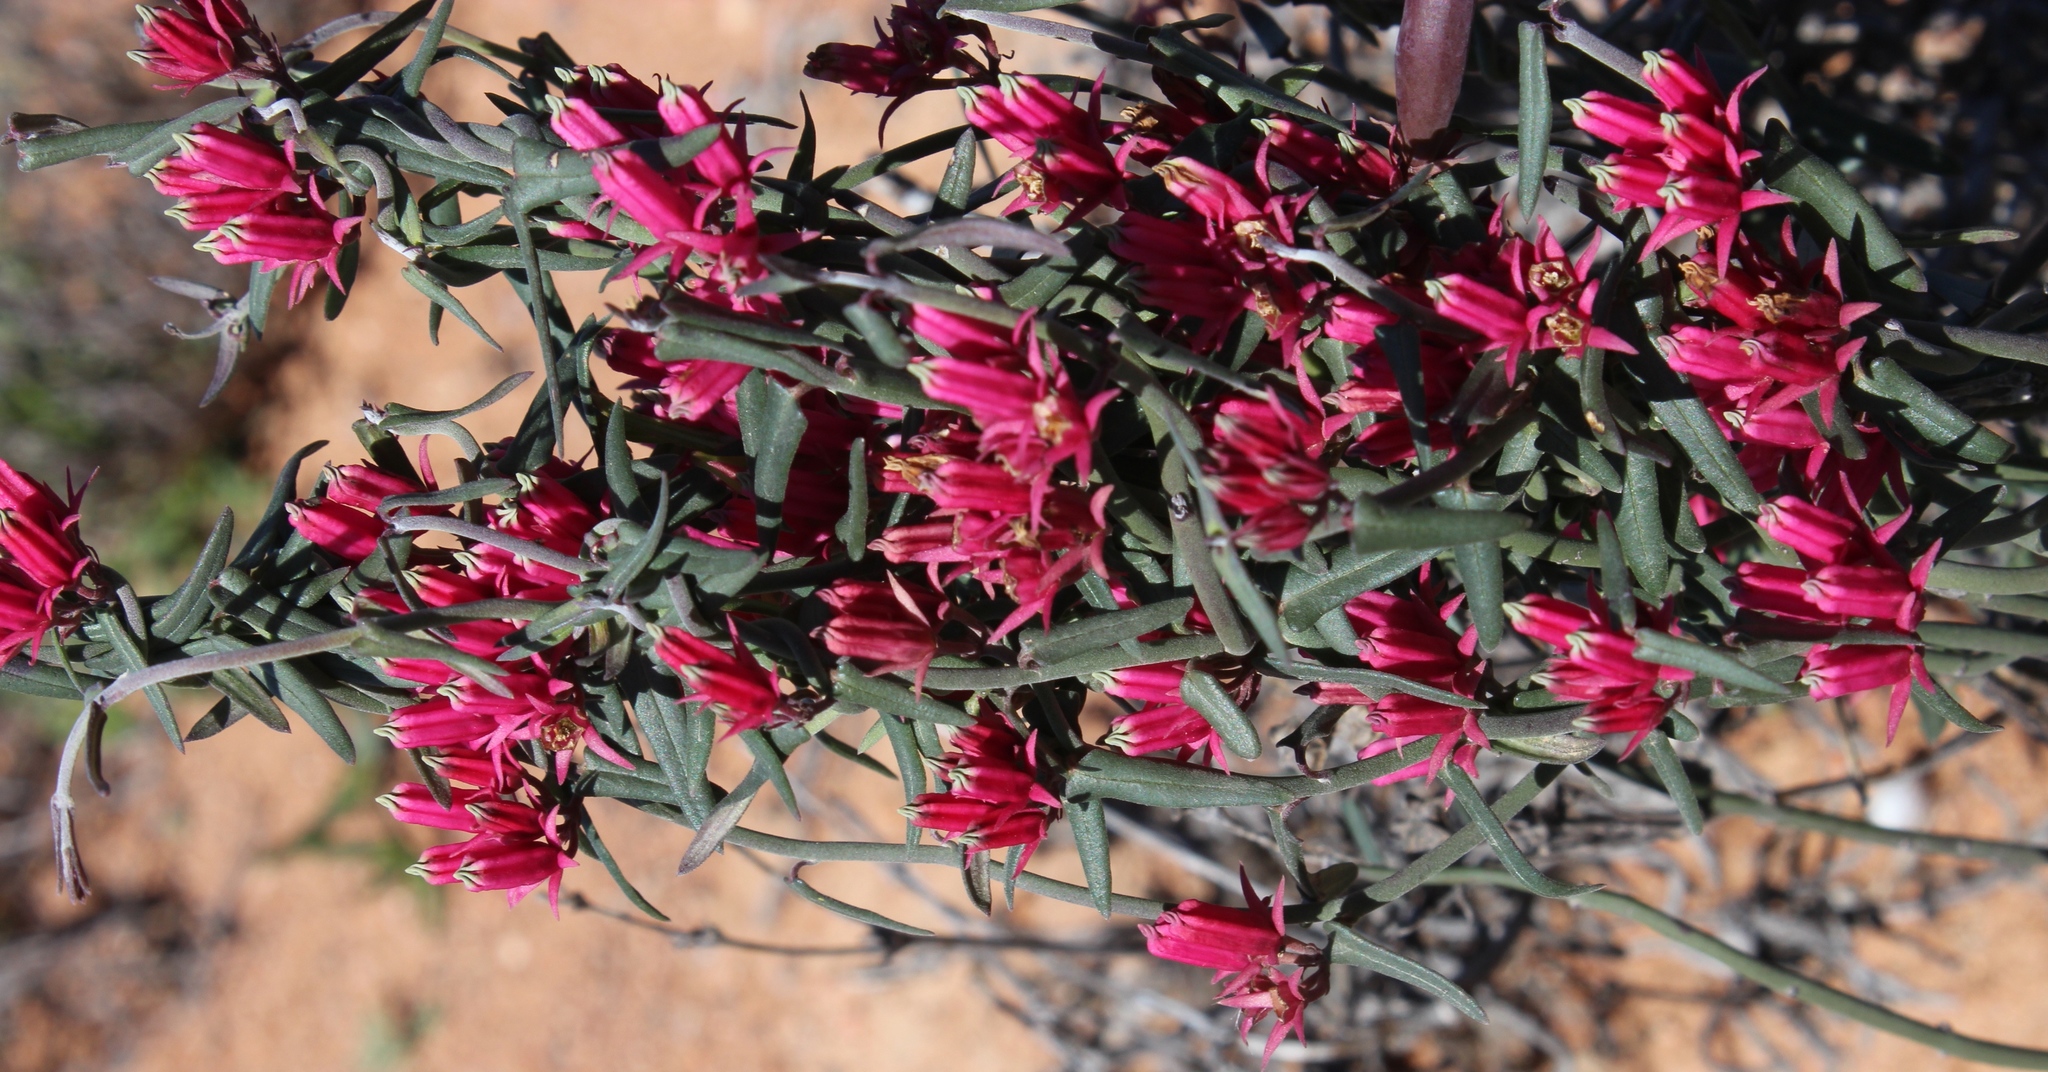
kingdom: Plantae
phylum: Tracheophyta
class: Magnoliopsida
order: Gentianales
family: Apocynaceae
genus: Microloma
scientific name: Microloma sagittatum
